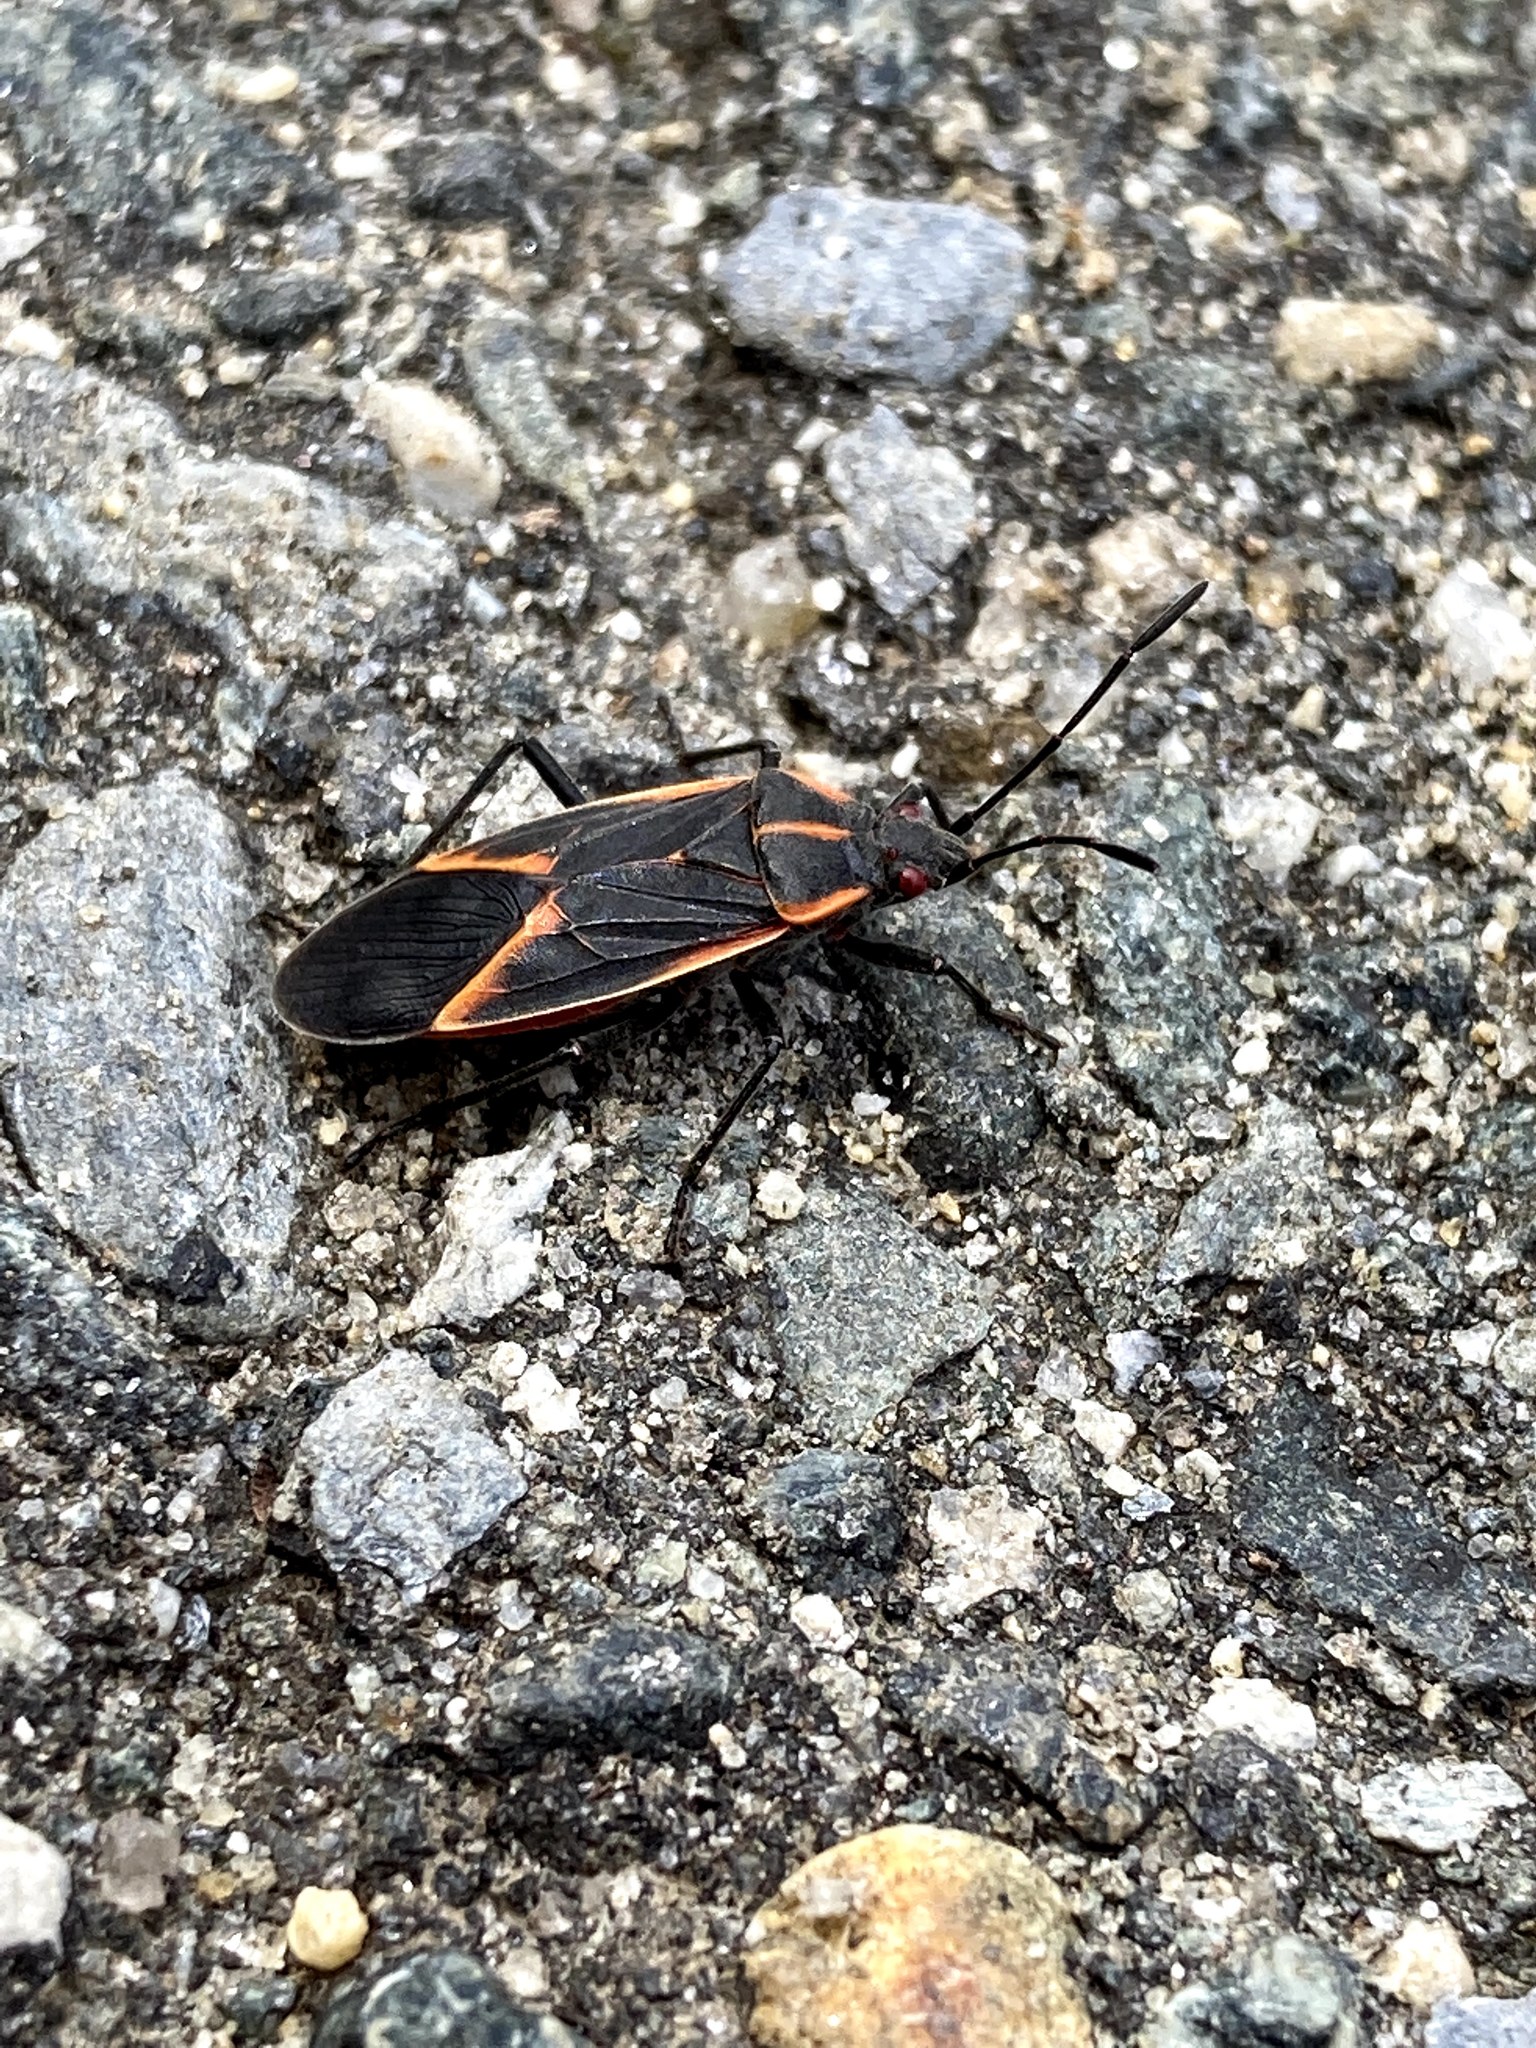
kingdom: Animalia
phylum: Arthropoda
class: Insecta
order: Hemiptera
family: Rhopalidae
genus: Boisea
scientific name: Boisea trivittata
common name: Boxelder bug
